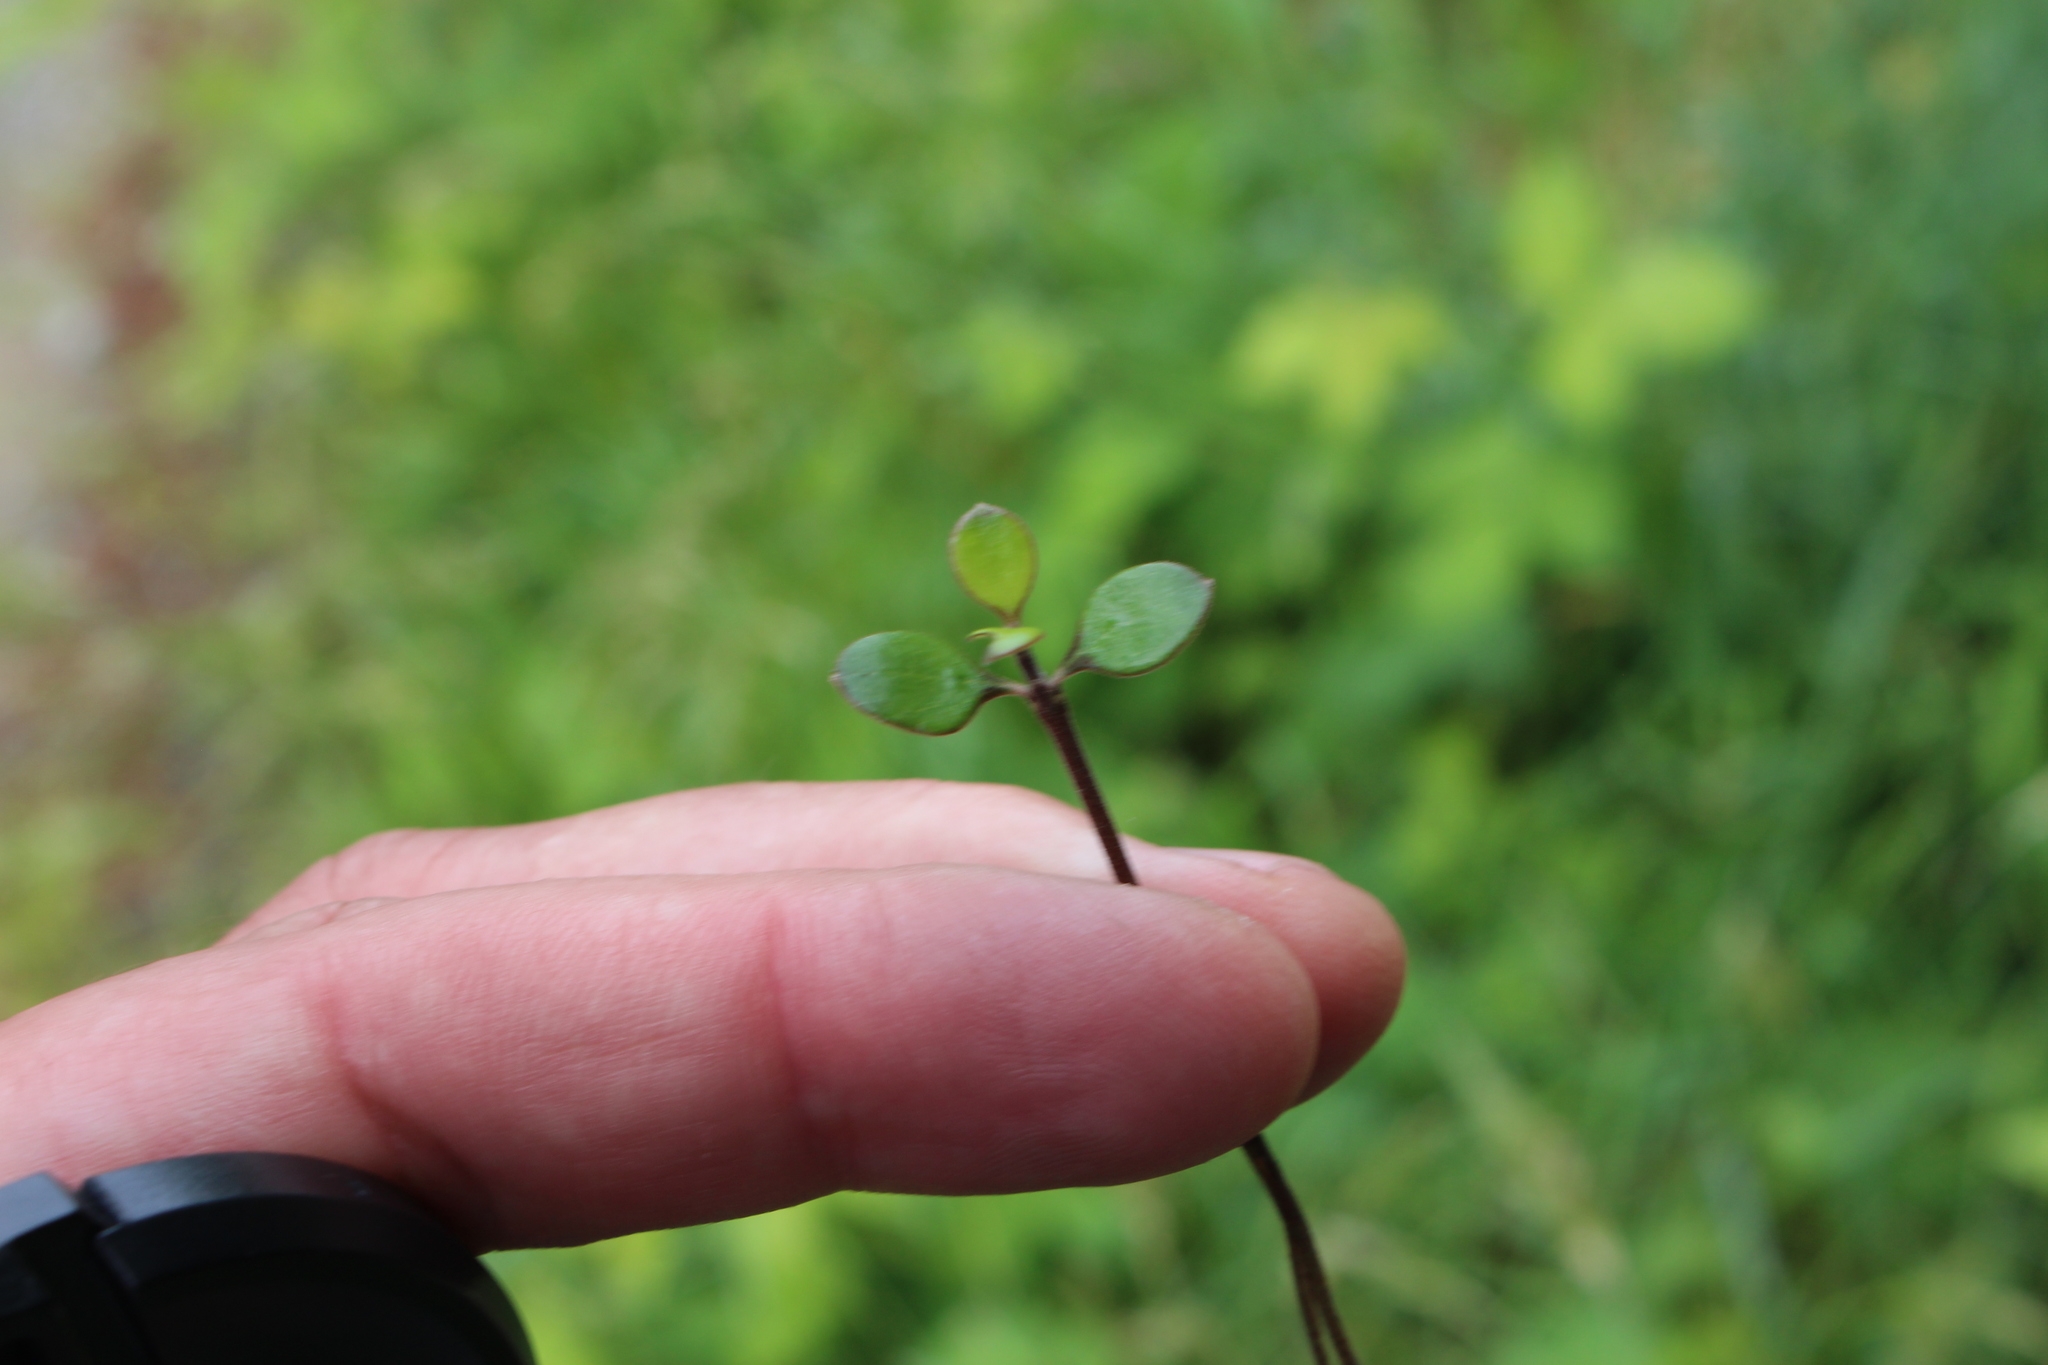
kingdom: Plantae
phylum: Tracheophyta
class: Magnoliopsida
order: Gentianales
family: Rubiaceae
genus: Coprosma
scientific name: Coprosma crassifolia
